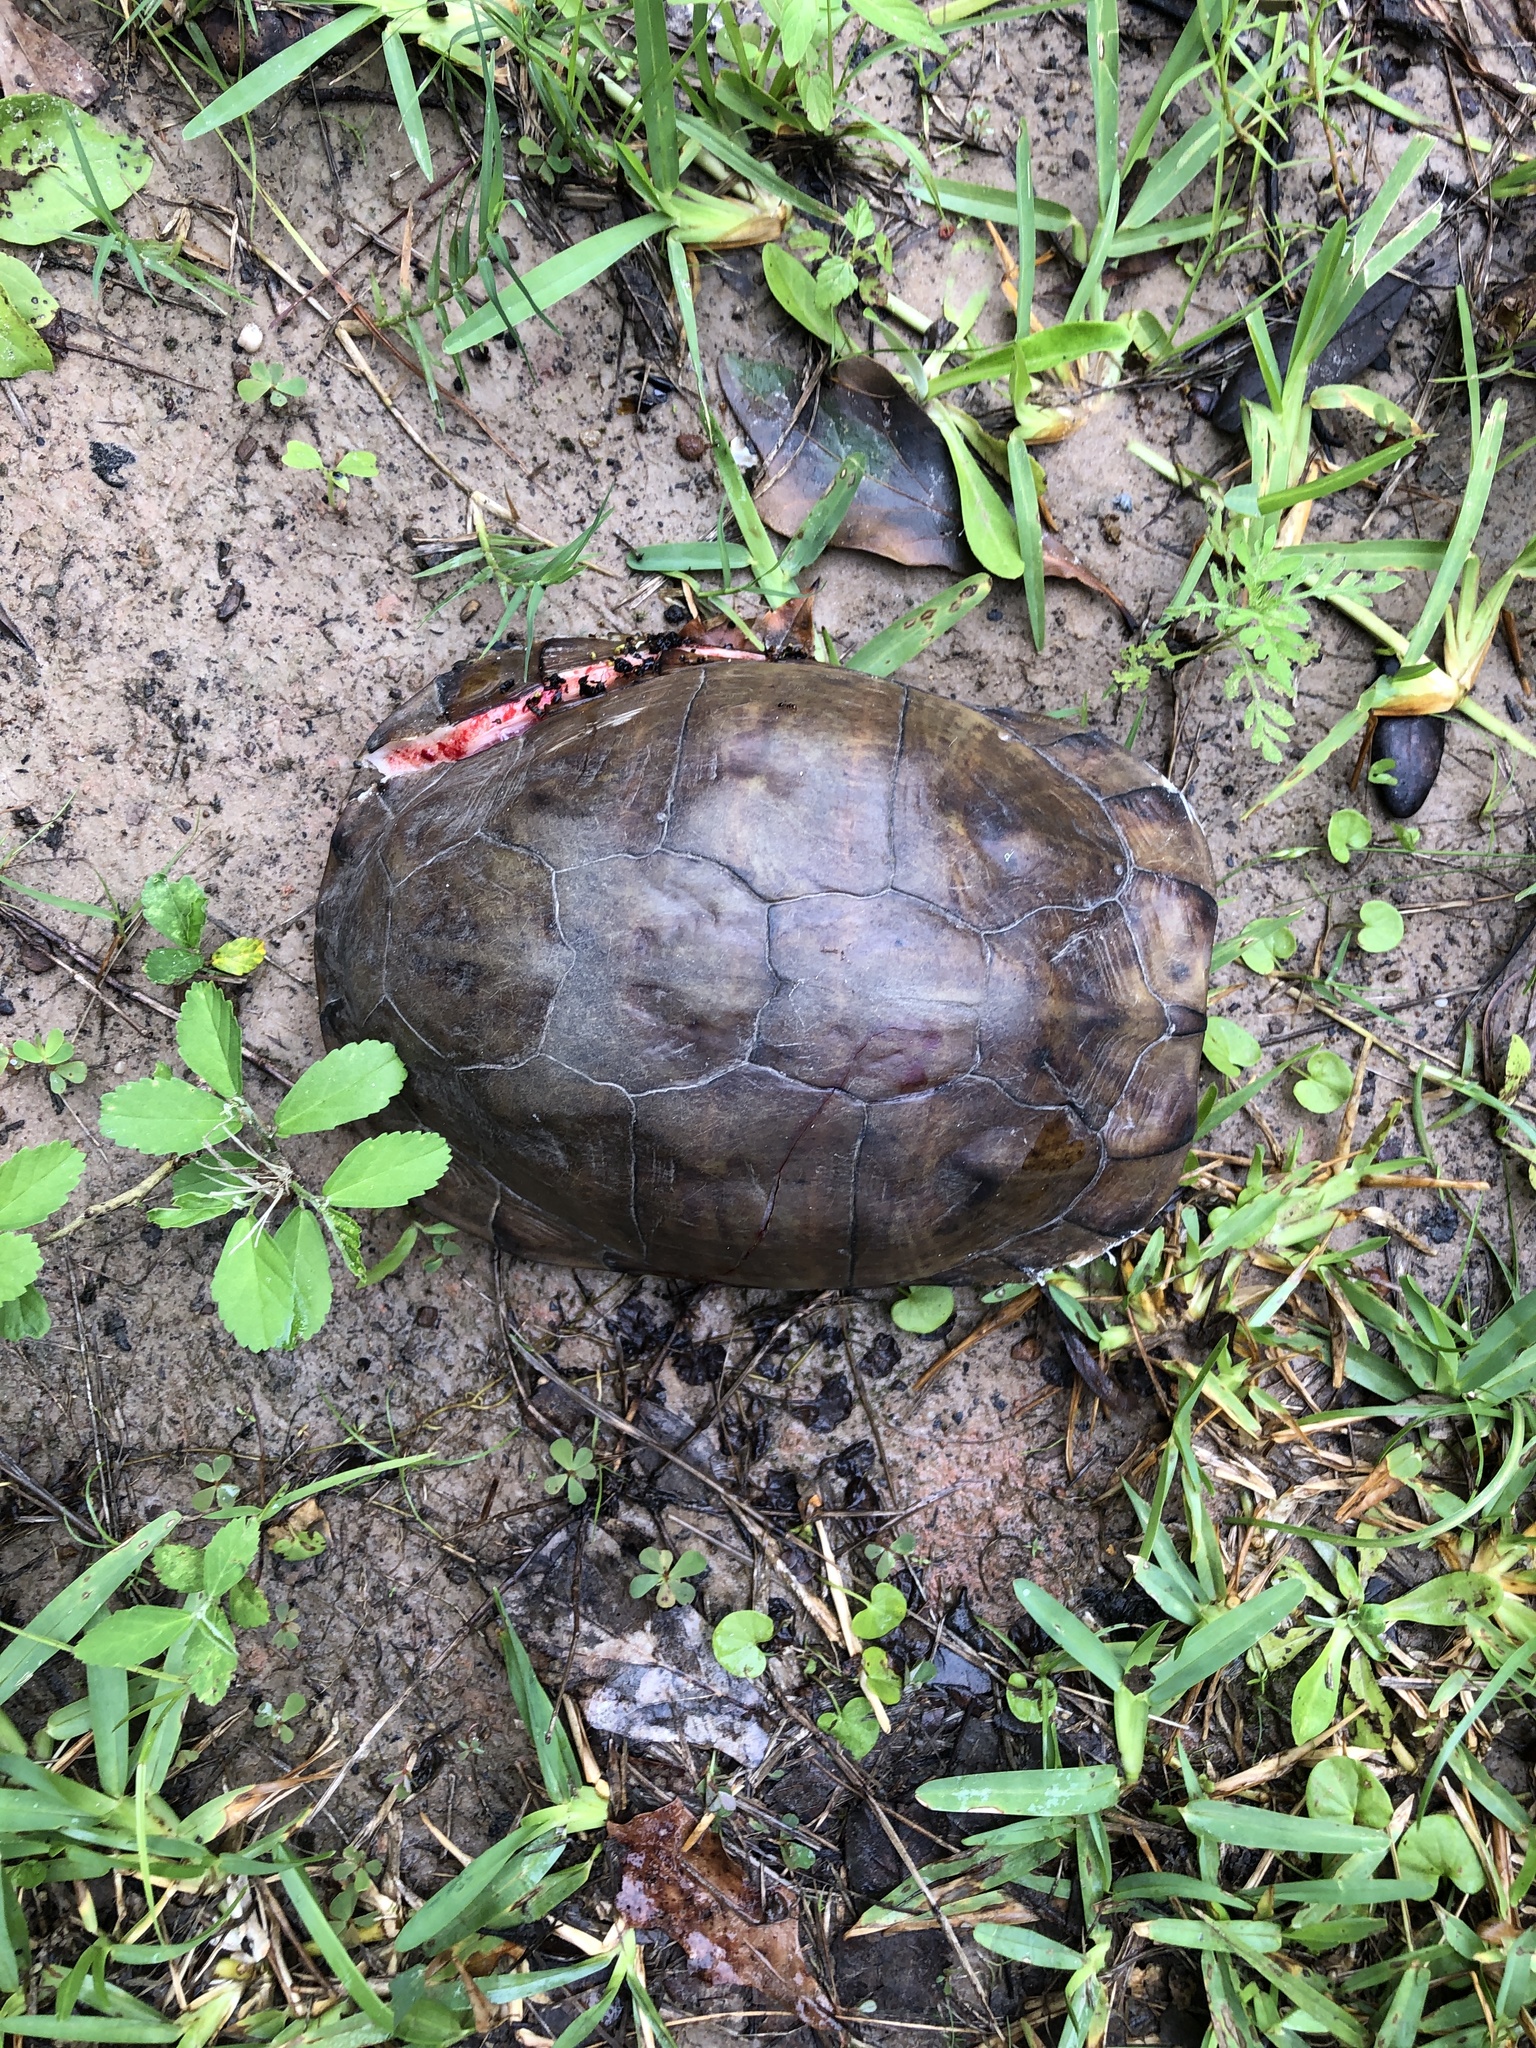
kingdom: Animalia
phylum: Chordata
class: Testudines
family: Emydidae
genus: Terrapene
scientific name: Terrapene carolina
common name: Common box turtle
